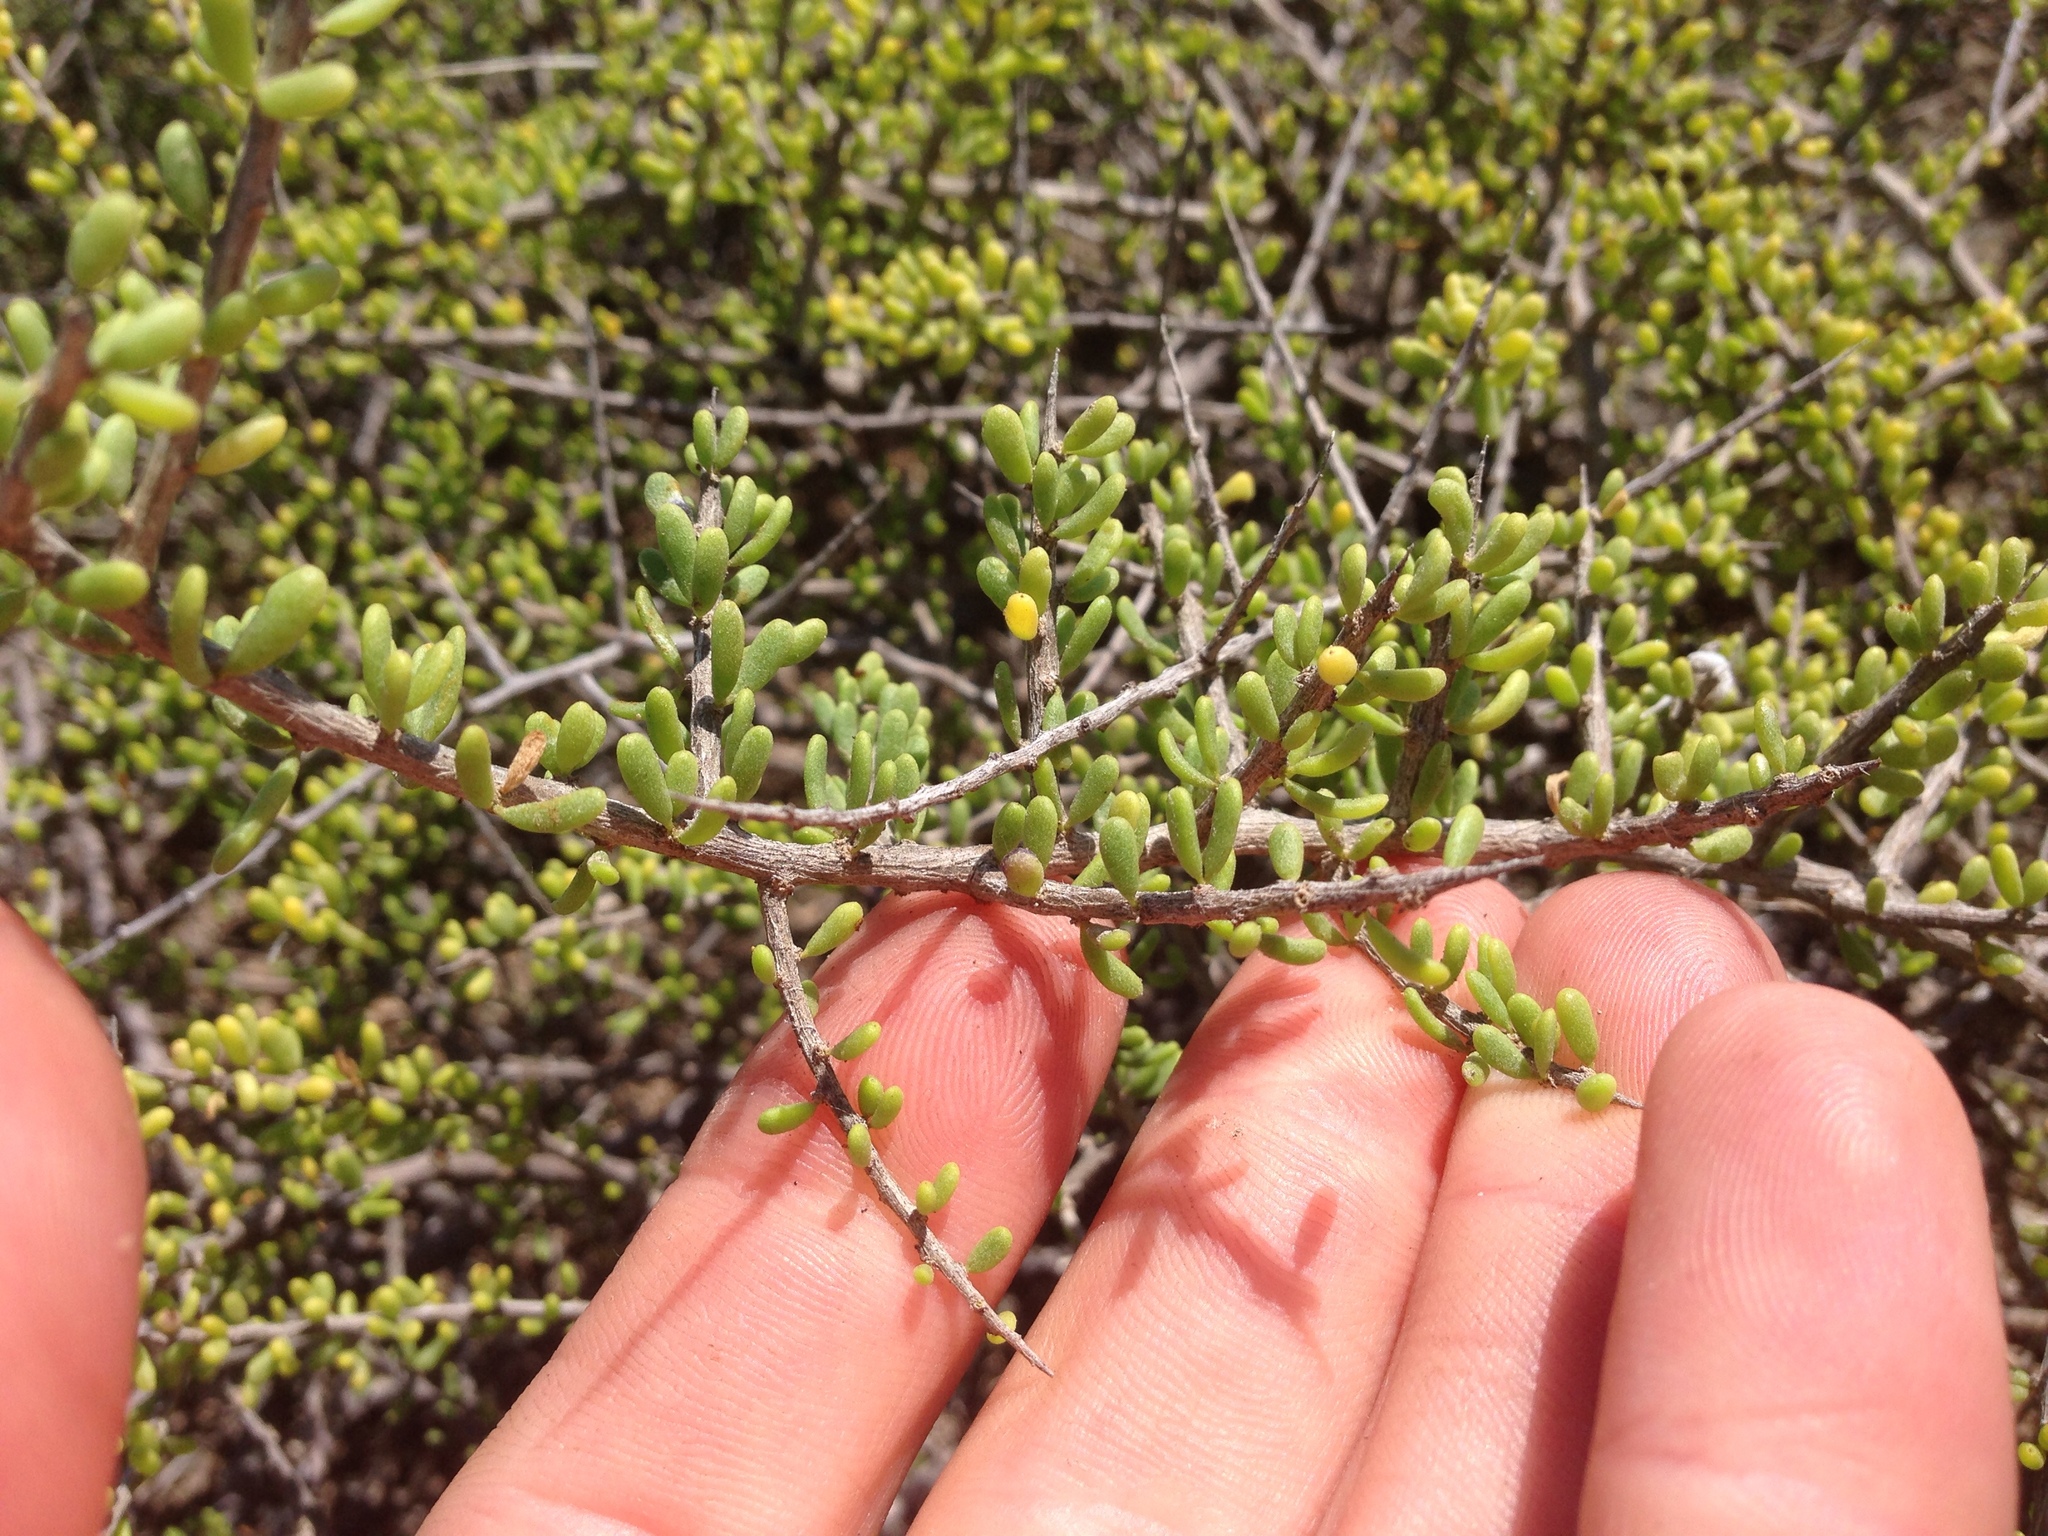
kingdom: Plantae
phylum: Tracheophyta
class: Magnoliopsida
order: Solanales
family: Solanaceae
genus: Lycium
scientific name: Lycium californicum
